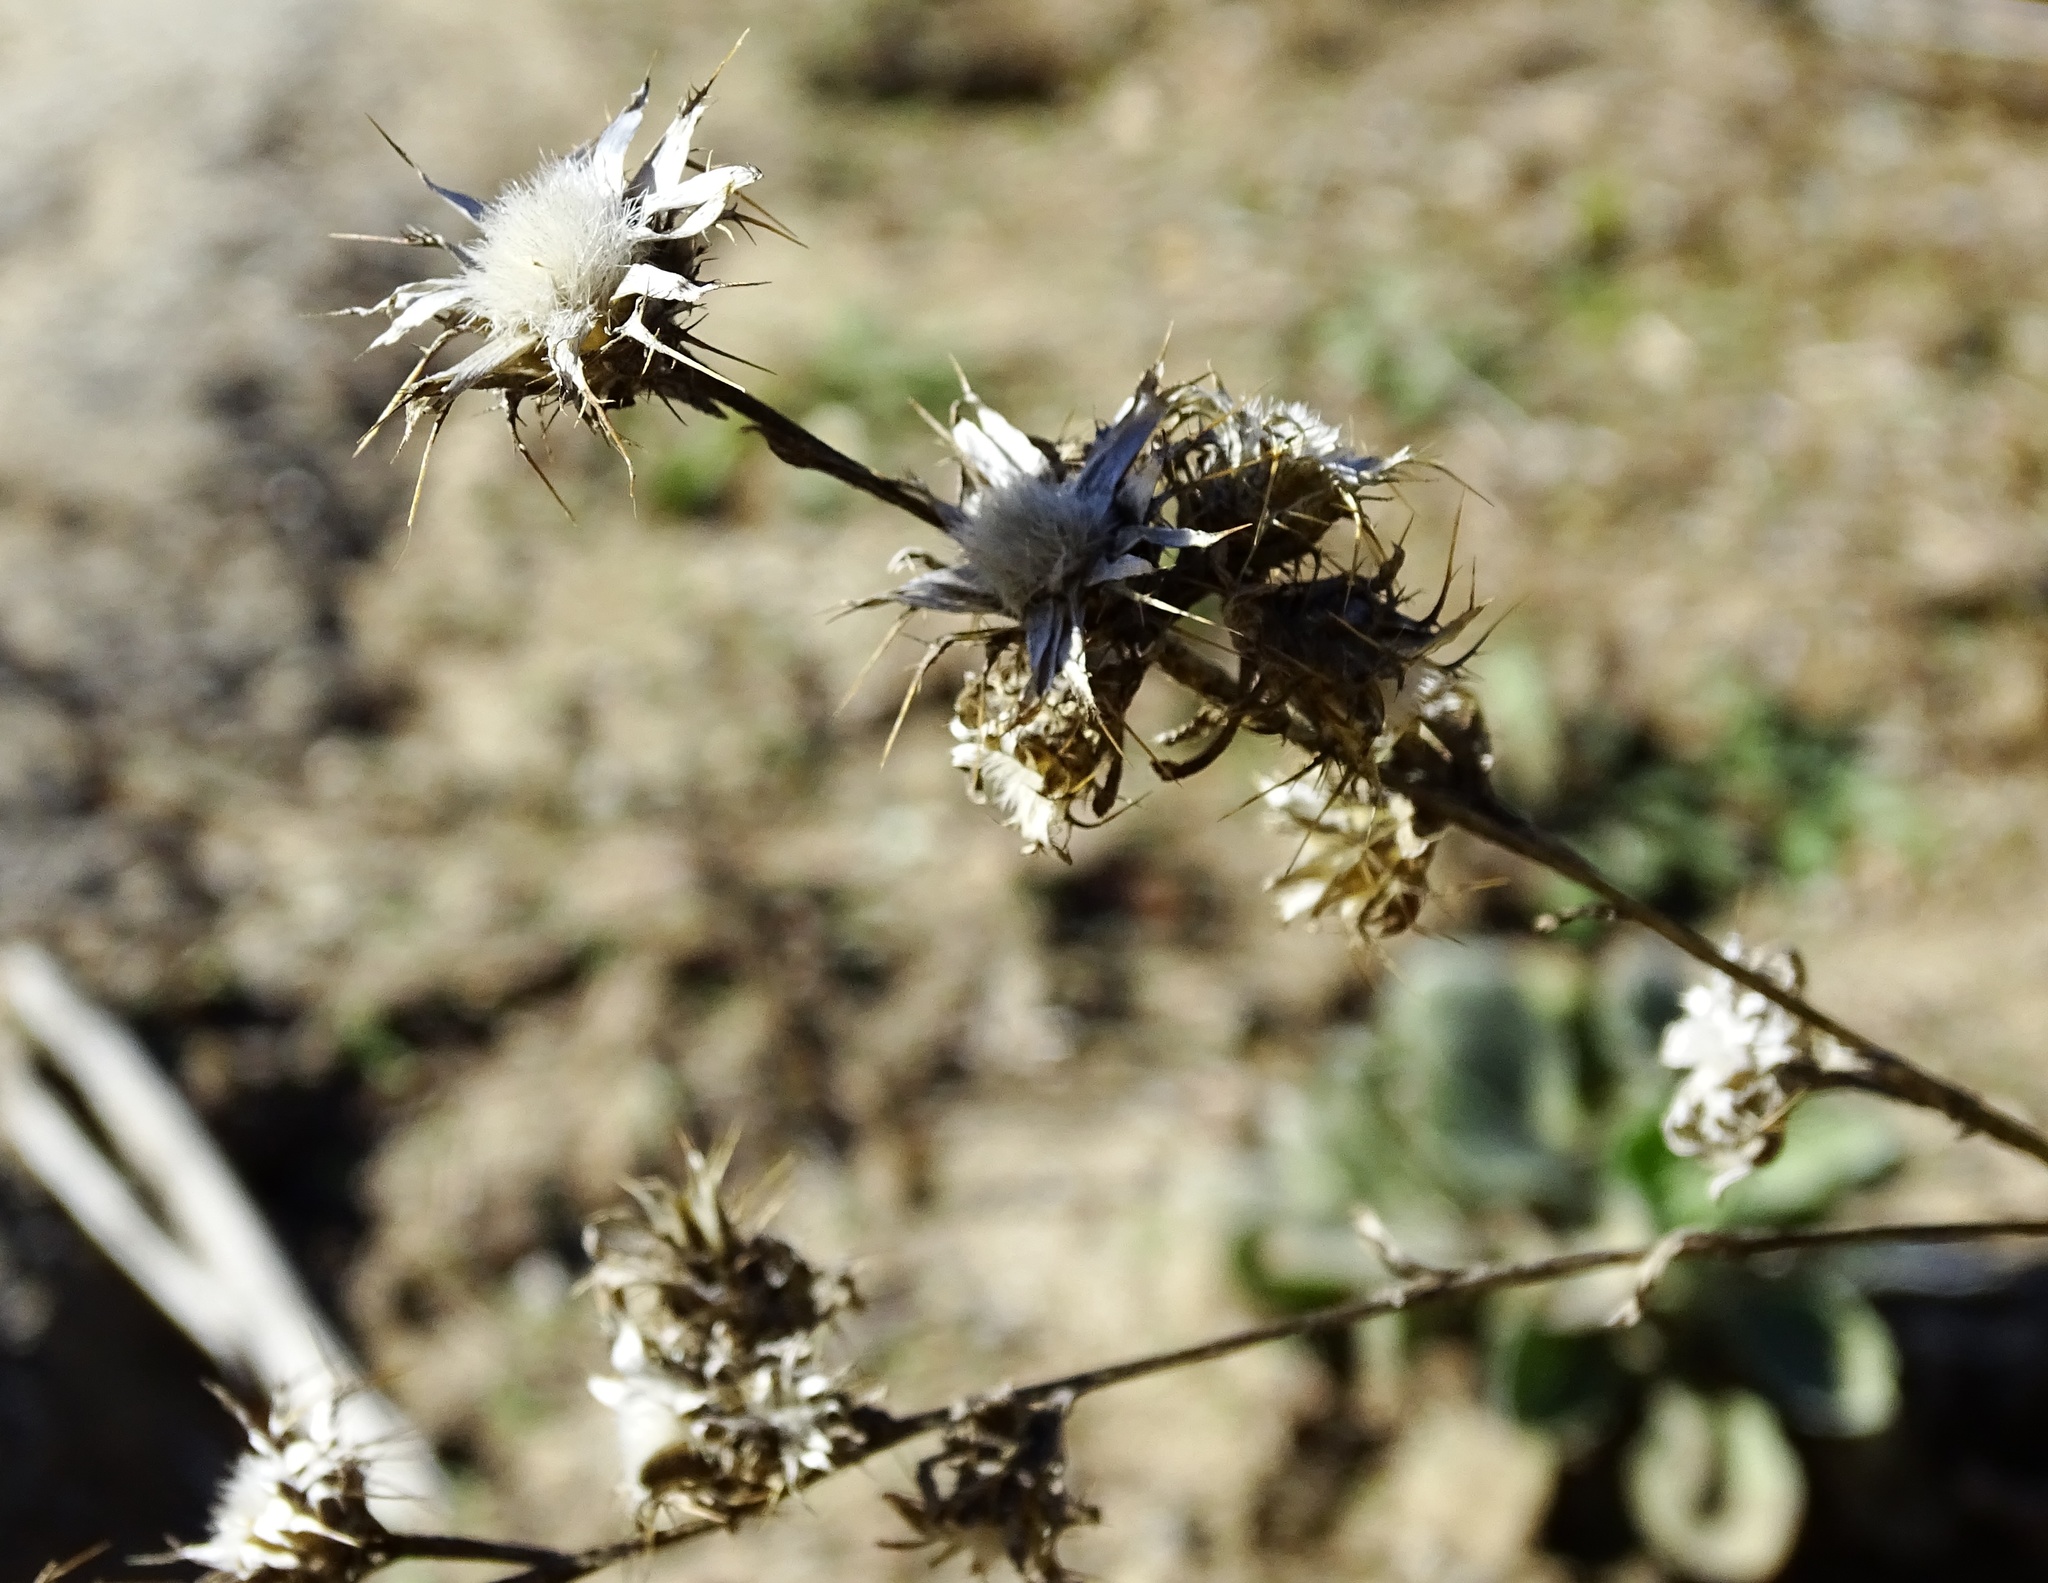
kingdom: Plantae
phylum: Tracheophyta
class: Magnoliopsida
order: Asterales
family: Asteraceae
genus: Centaurea
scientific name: Centaurea melitensis
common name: Maltese star-thistle
